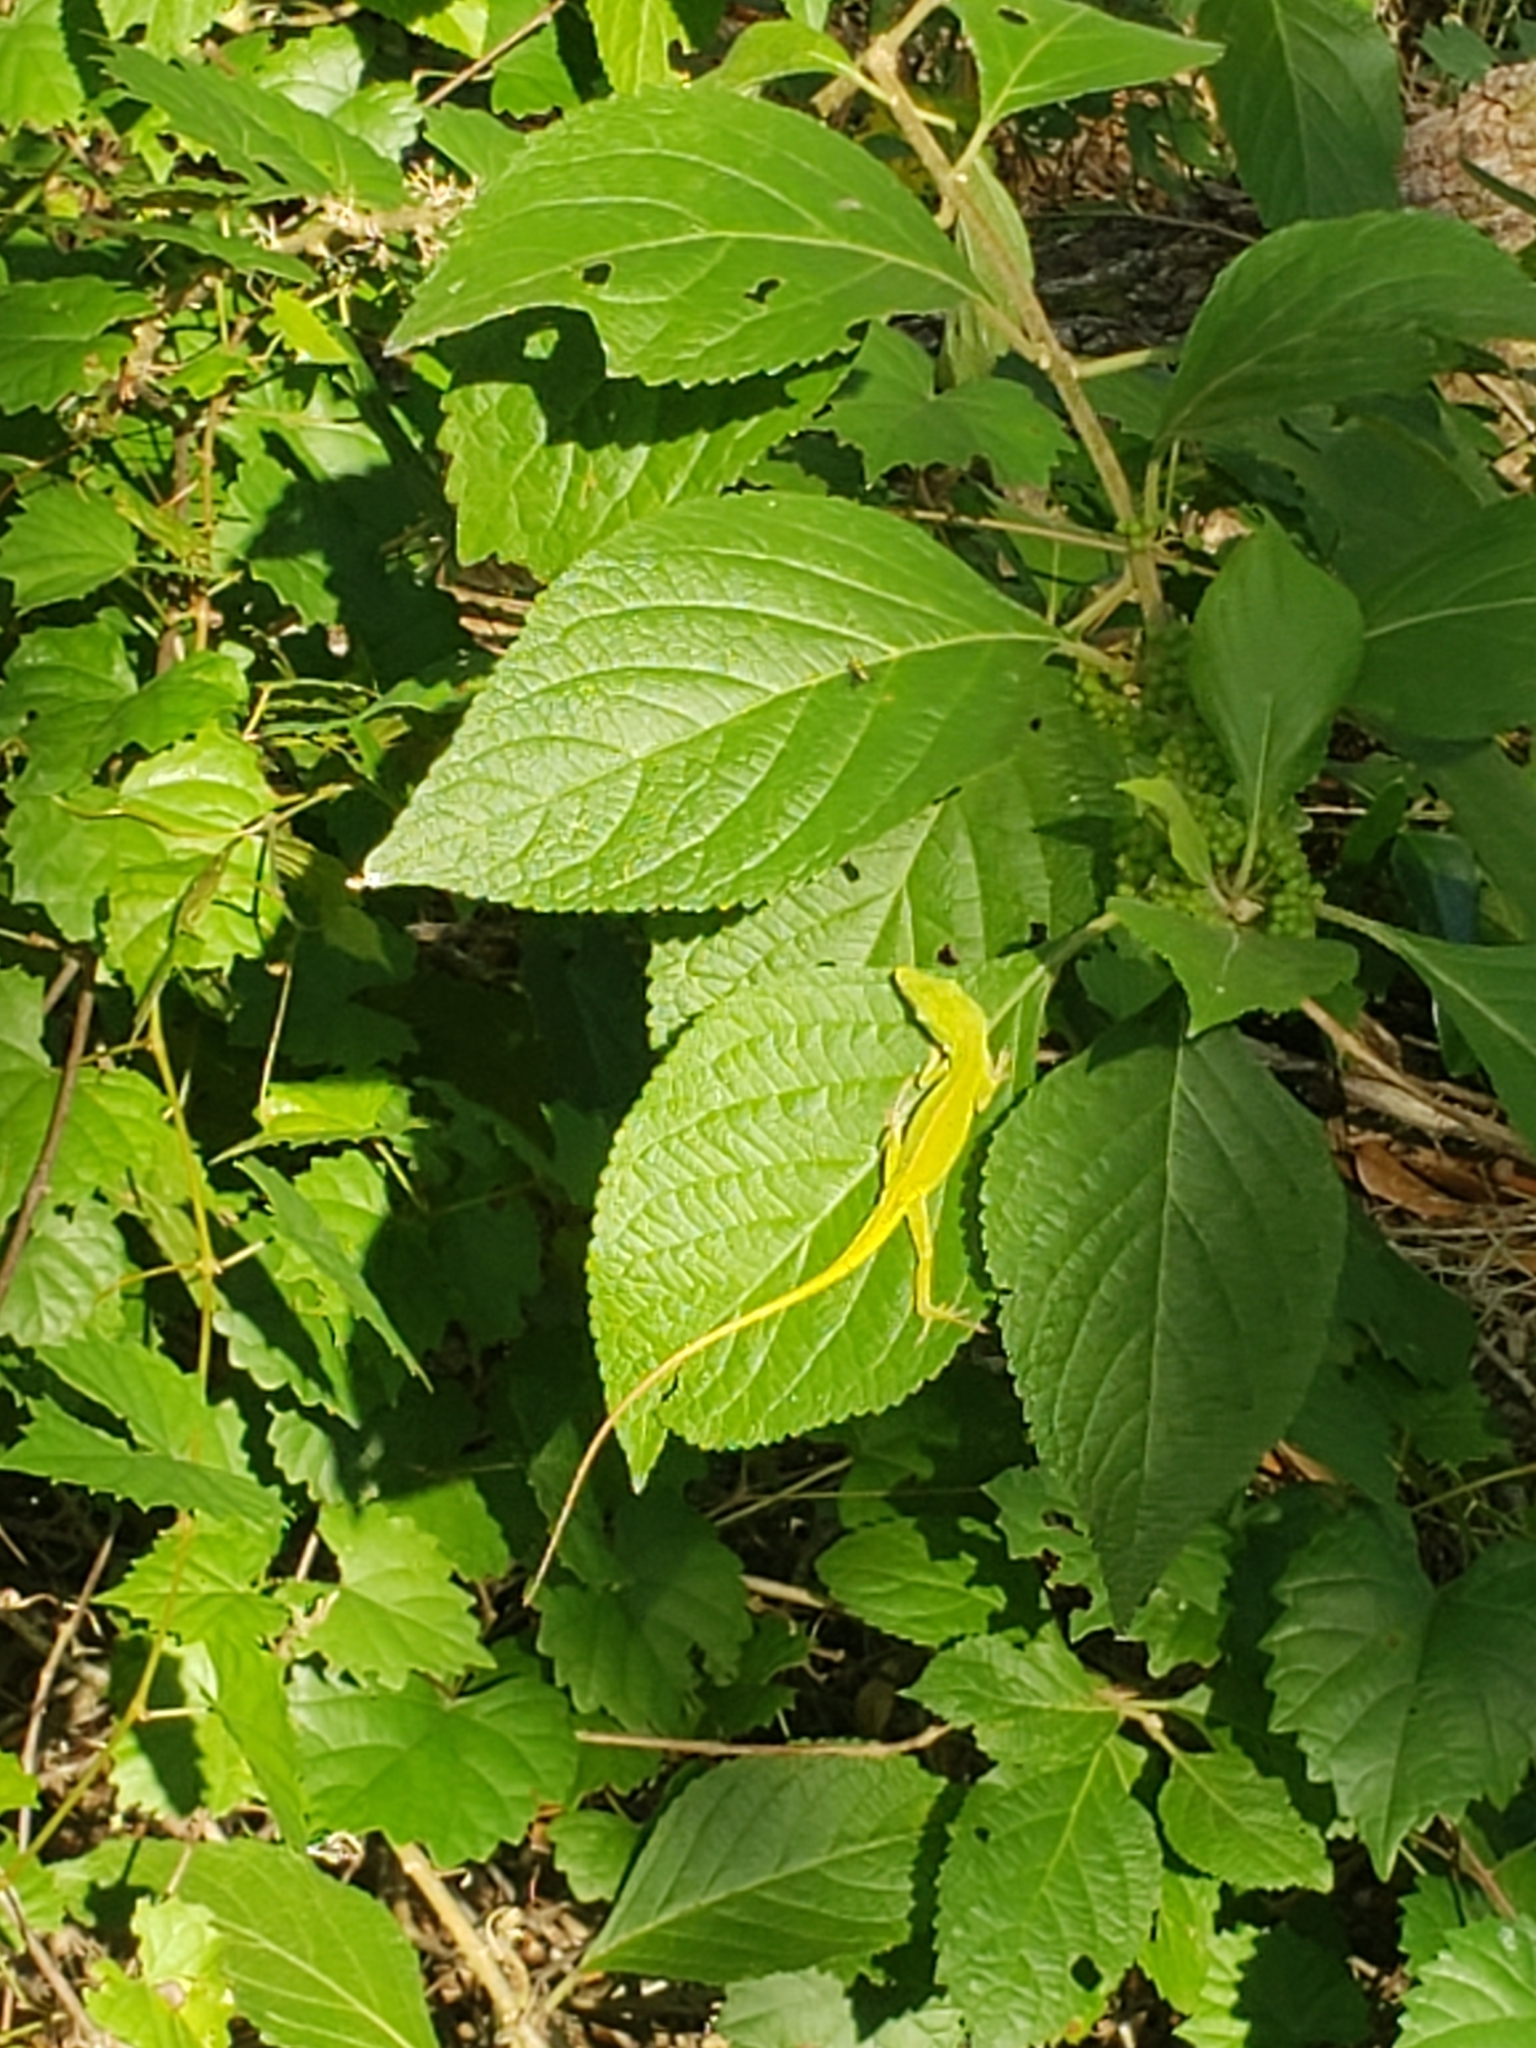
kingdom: Animalia
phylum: Chordata
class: Squamata
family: Dactyloidae
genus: Anolis
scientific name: Anolis carolinensis
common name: Green anole
